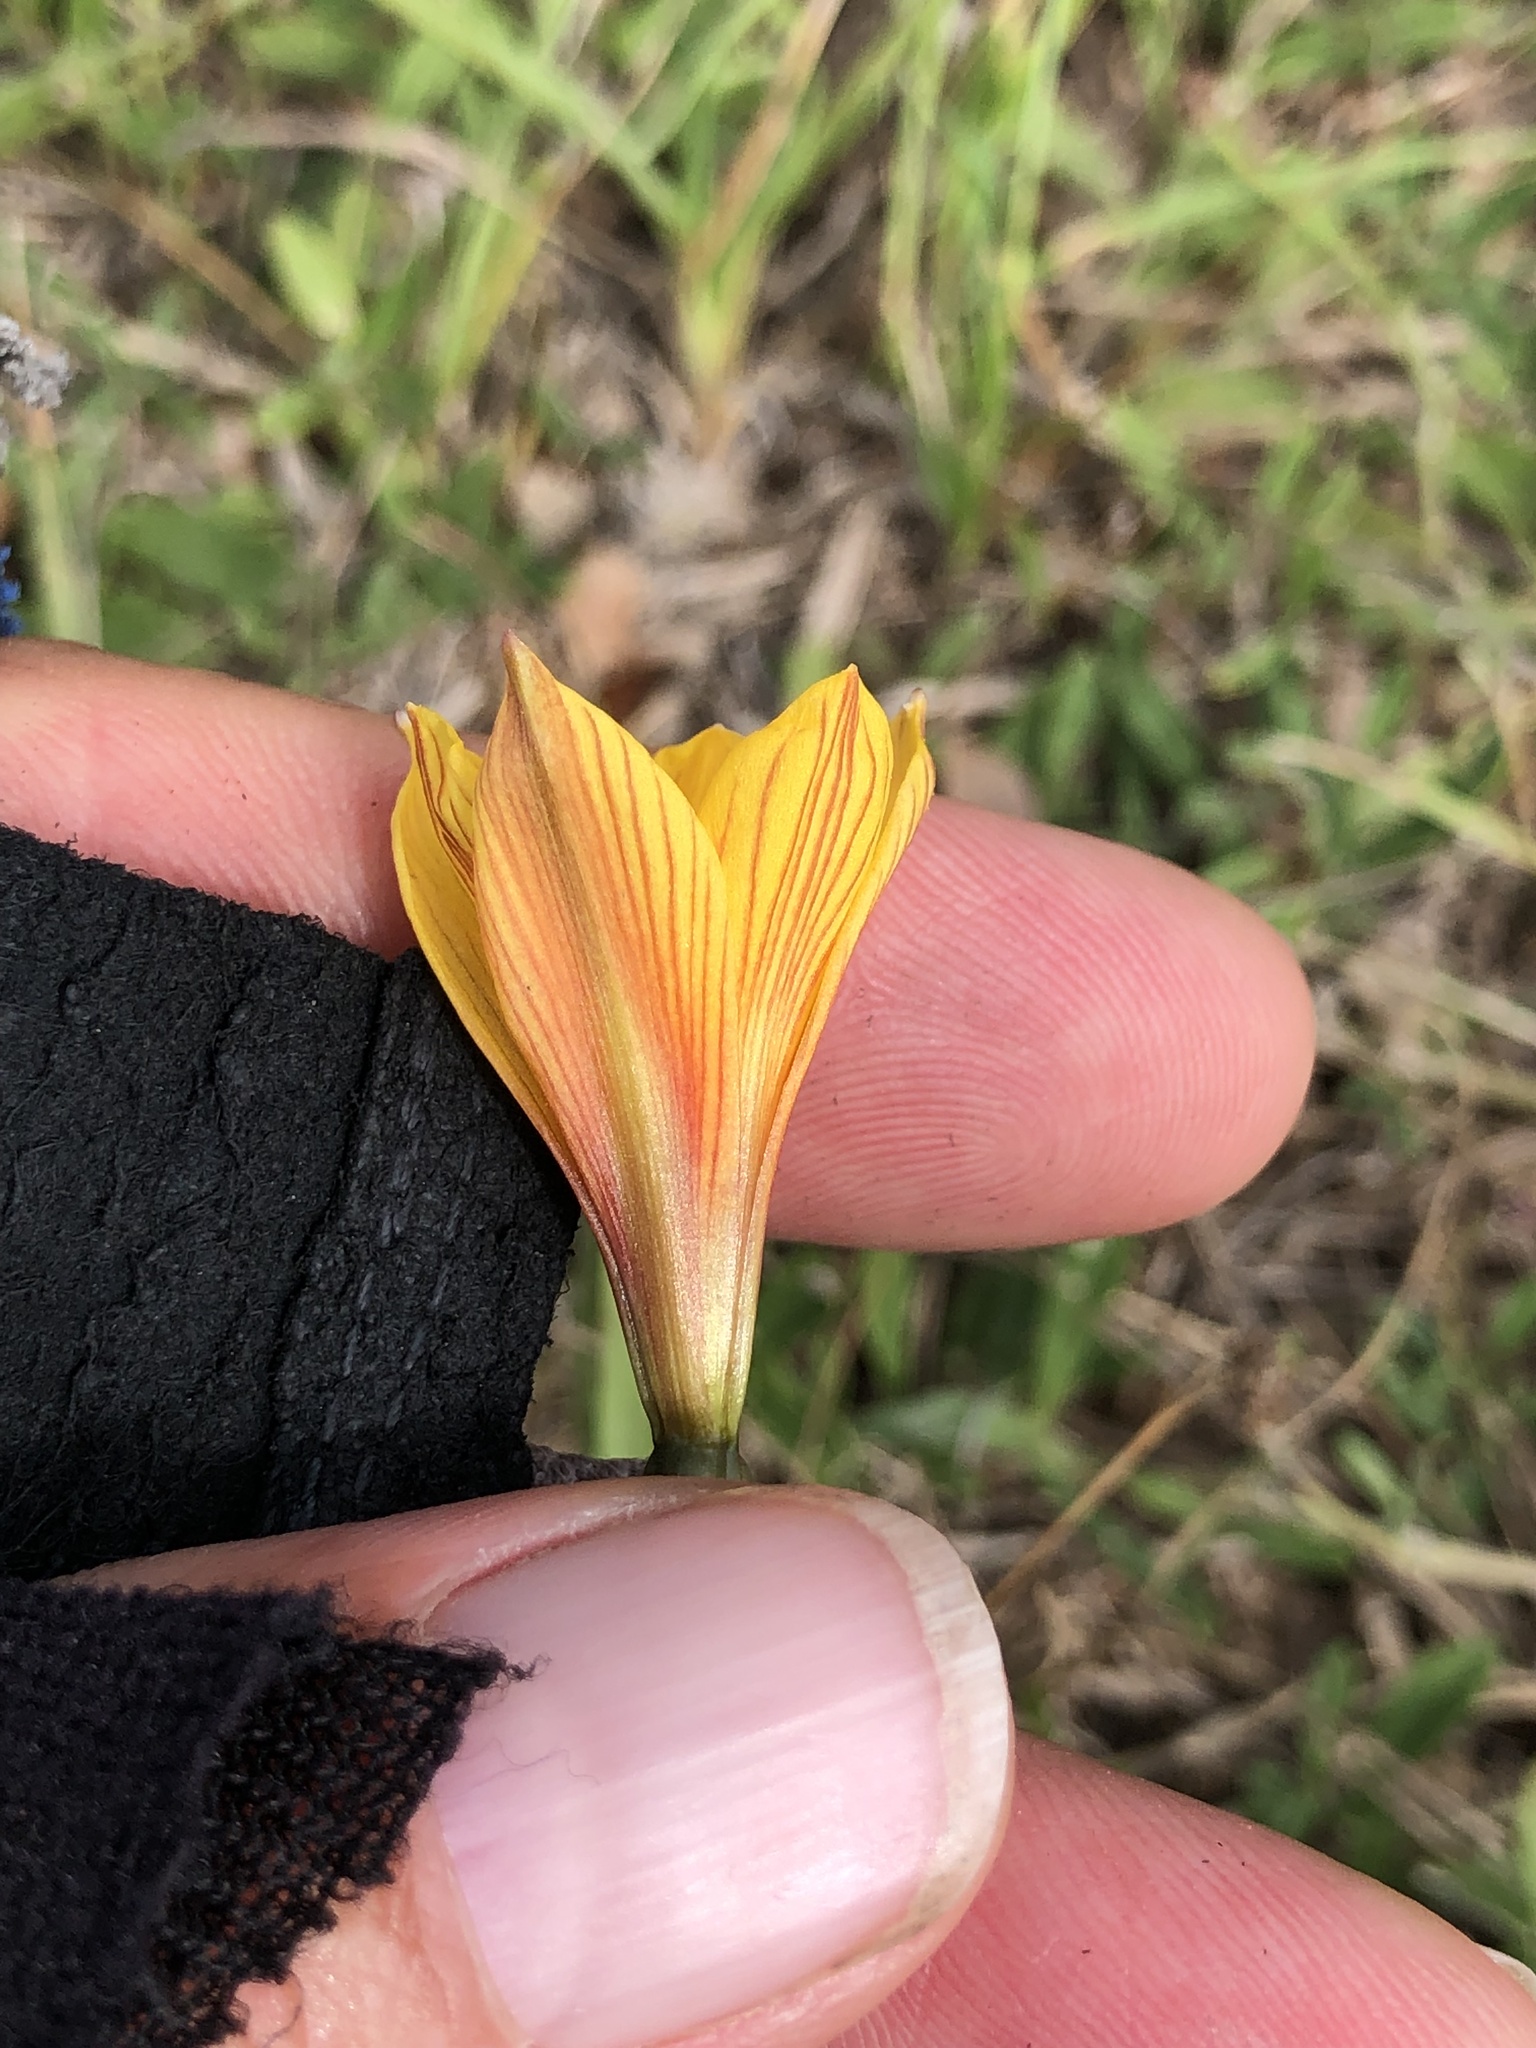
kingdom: Plantae
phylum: Tracheophyta
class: Liliopsida
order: Asparagales
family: Amaryllidaceae
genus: Zephyranthes
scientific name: Zephyranthes tubispatha
